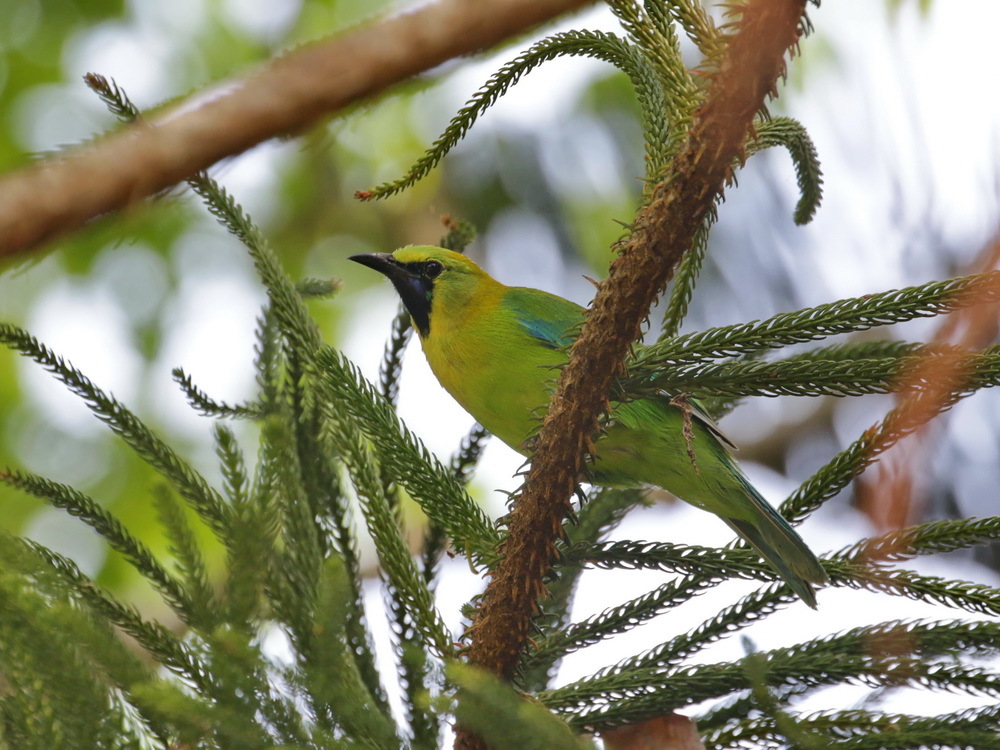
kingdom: Animalia
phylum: Chordata
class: Aves
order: Passeriformes
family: Chloropseidae
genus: Chloropsis
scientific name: Chloropsis moluccensis
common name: Blue-winged leafbird
